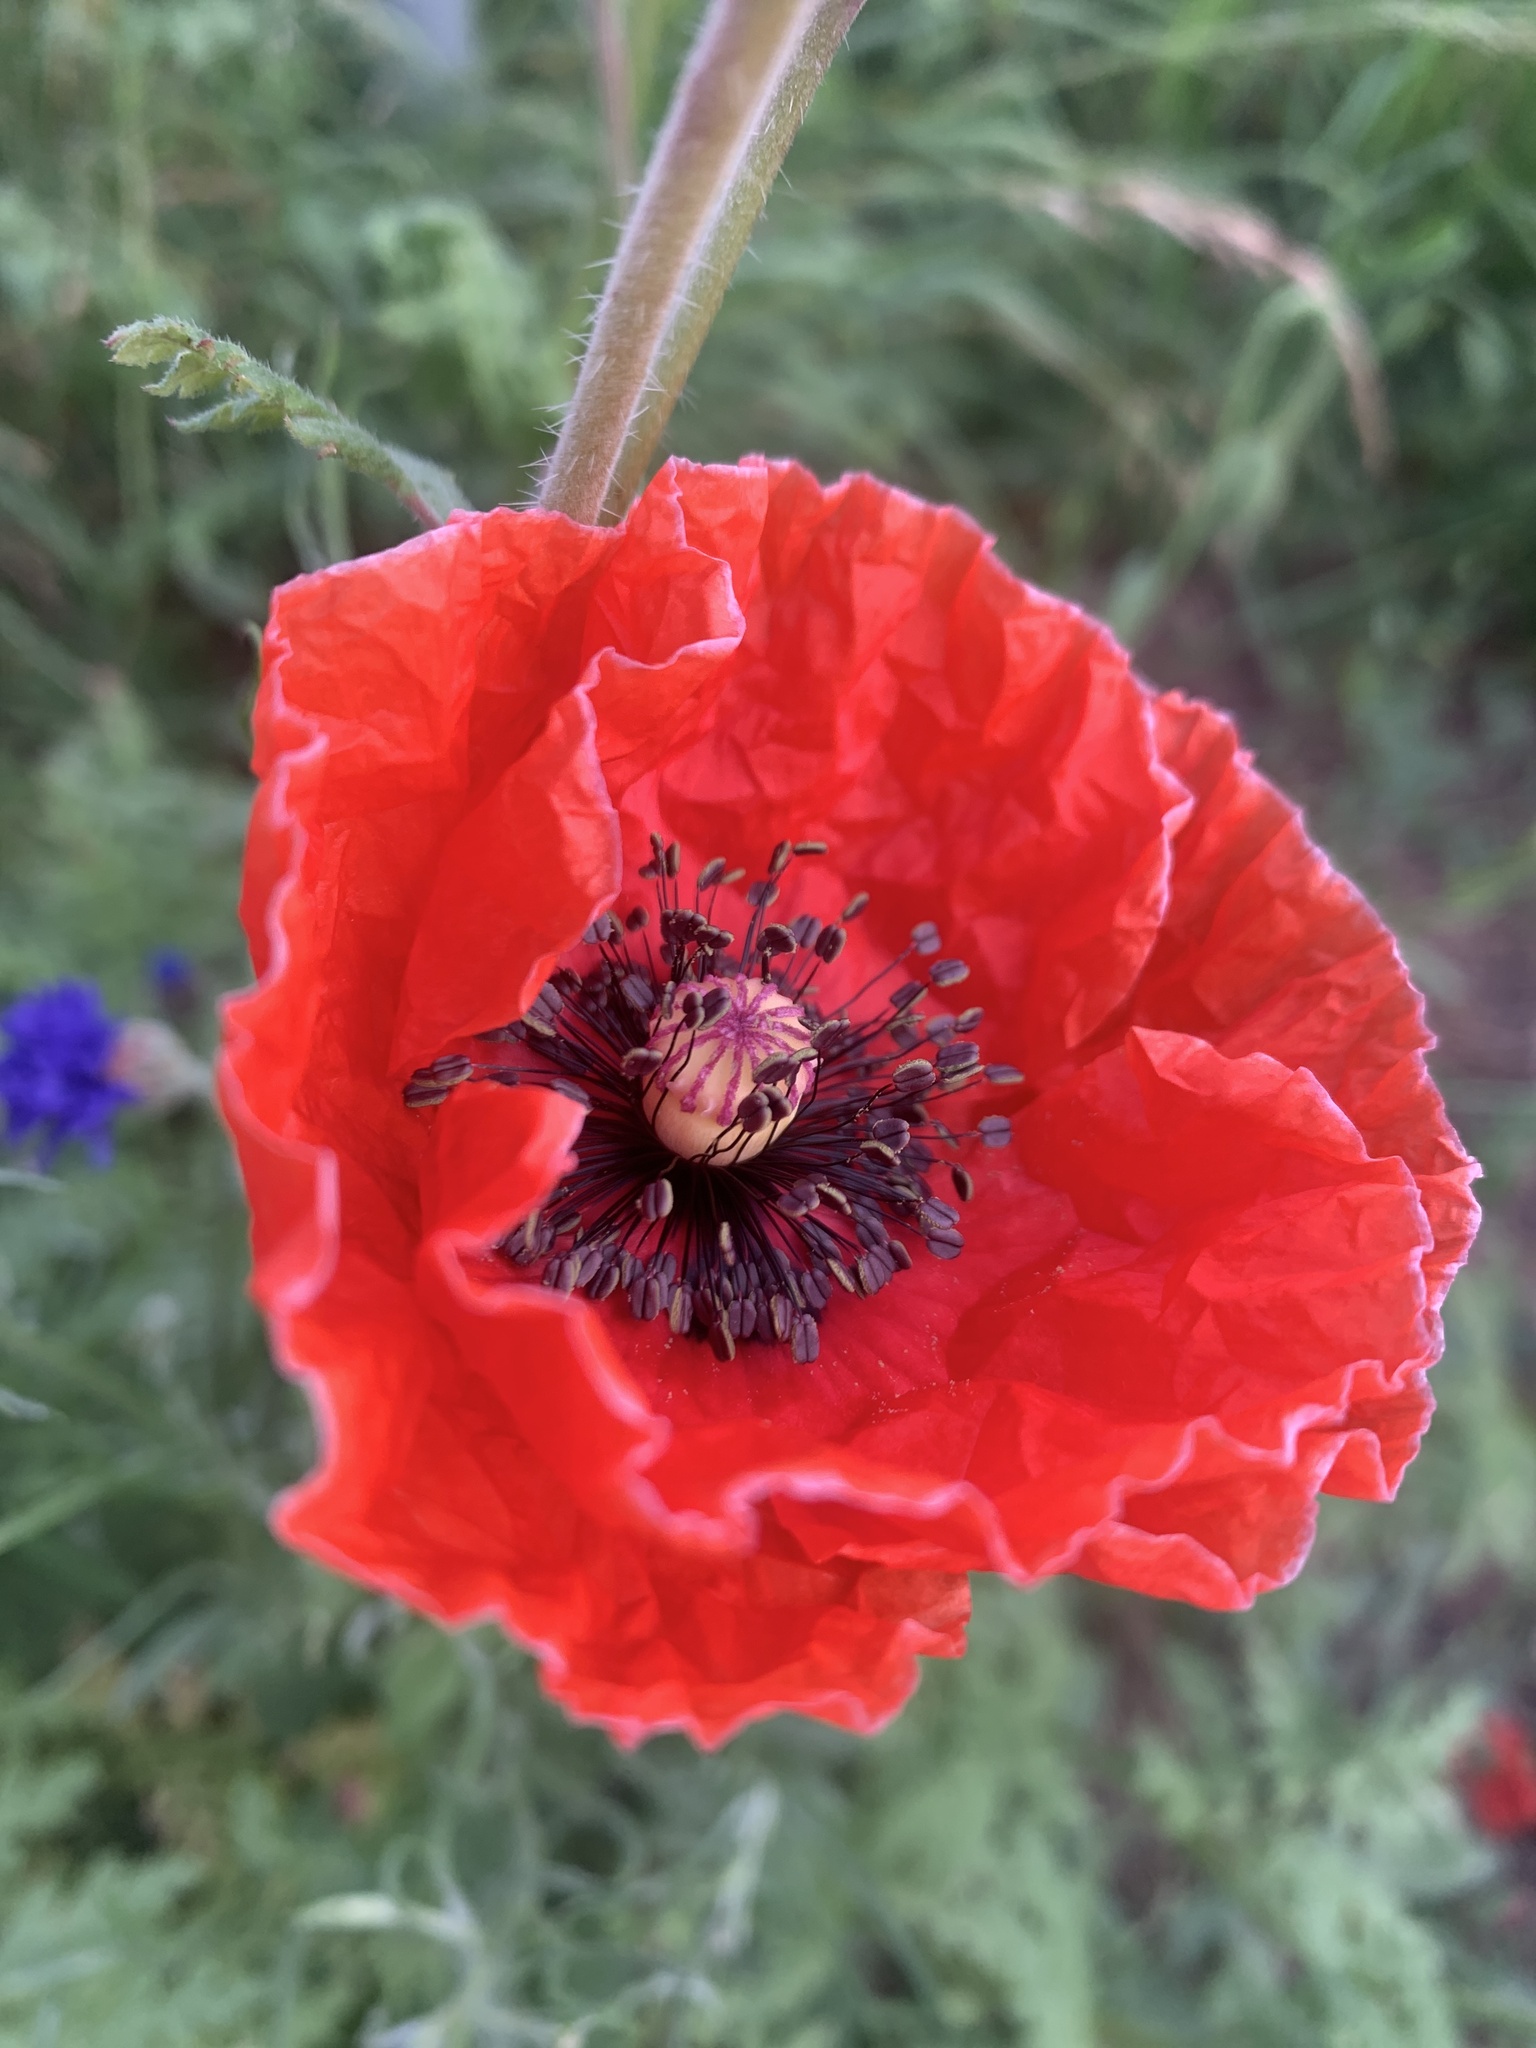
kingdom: Plantae
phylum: Tracheophyta
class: Magnoliopsida
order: Ranunculales
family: Papaveraceae
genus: Papaver
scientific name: Papaver rhoeas
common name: Corn poppy
